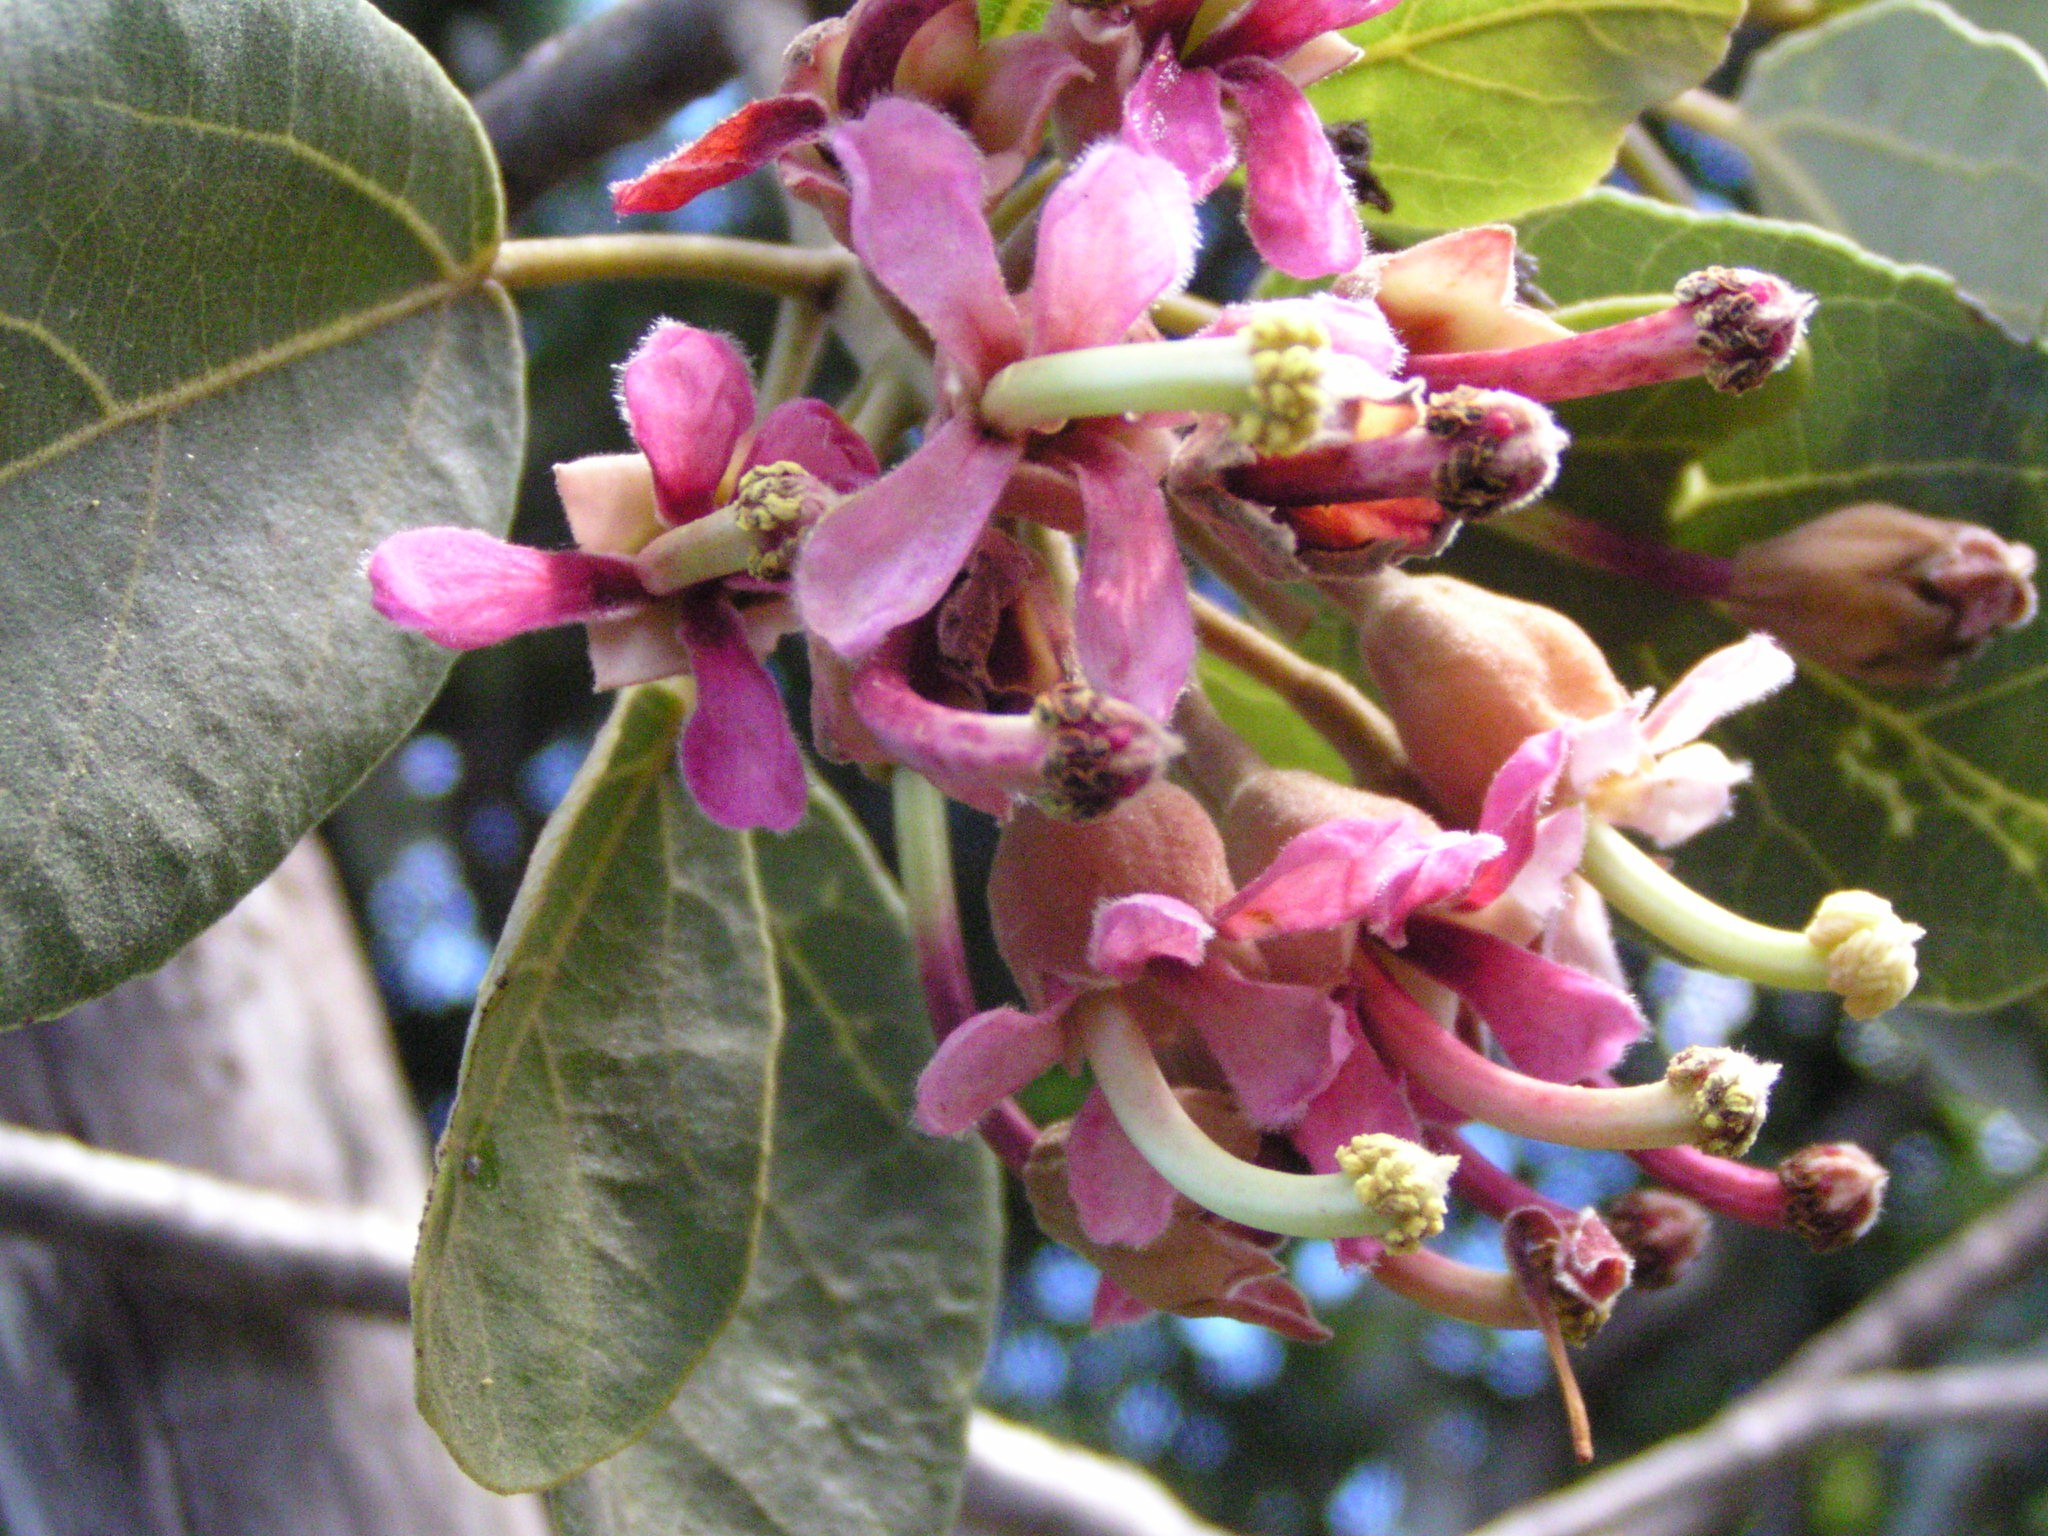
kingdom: Plantae
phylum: Tracheophyta
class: Magnoliopsida
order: Malvales
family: Malvaceae
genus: Ungeria
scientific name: Ungeria floribunda
